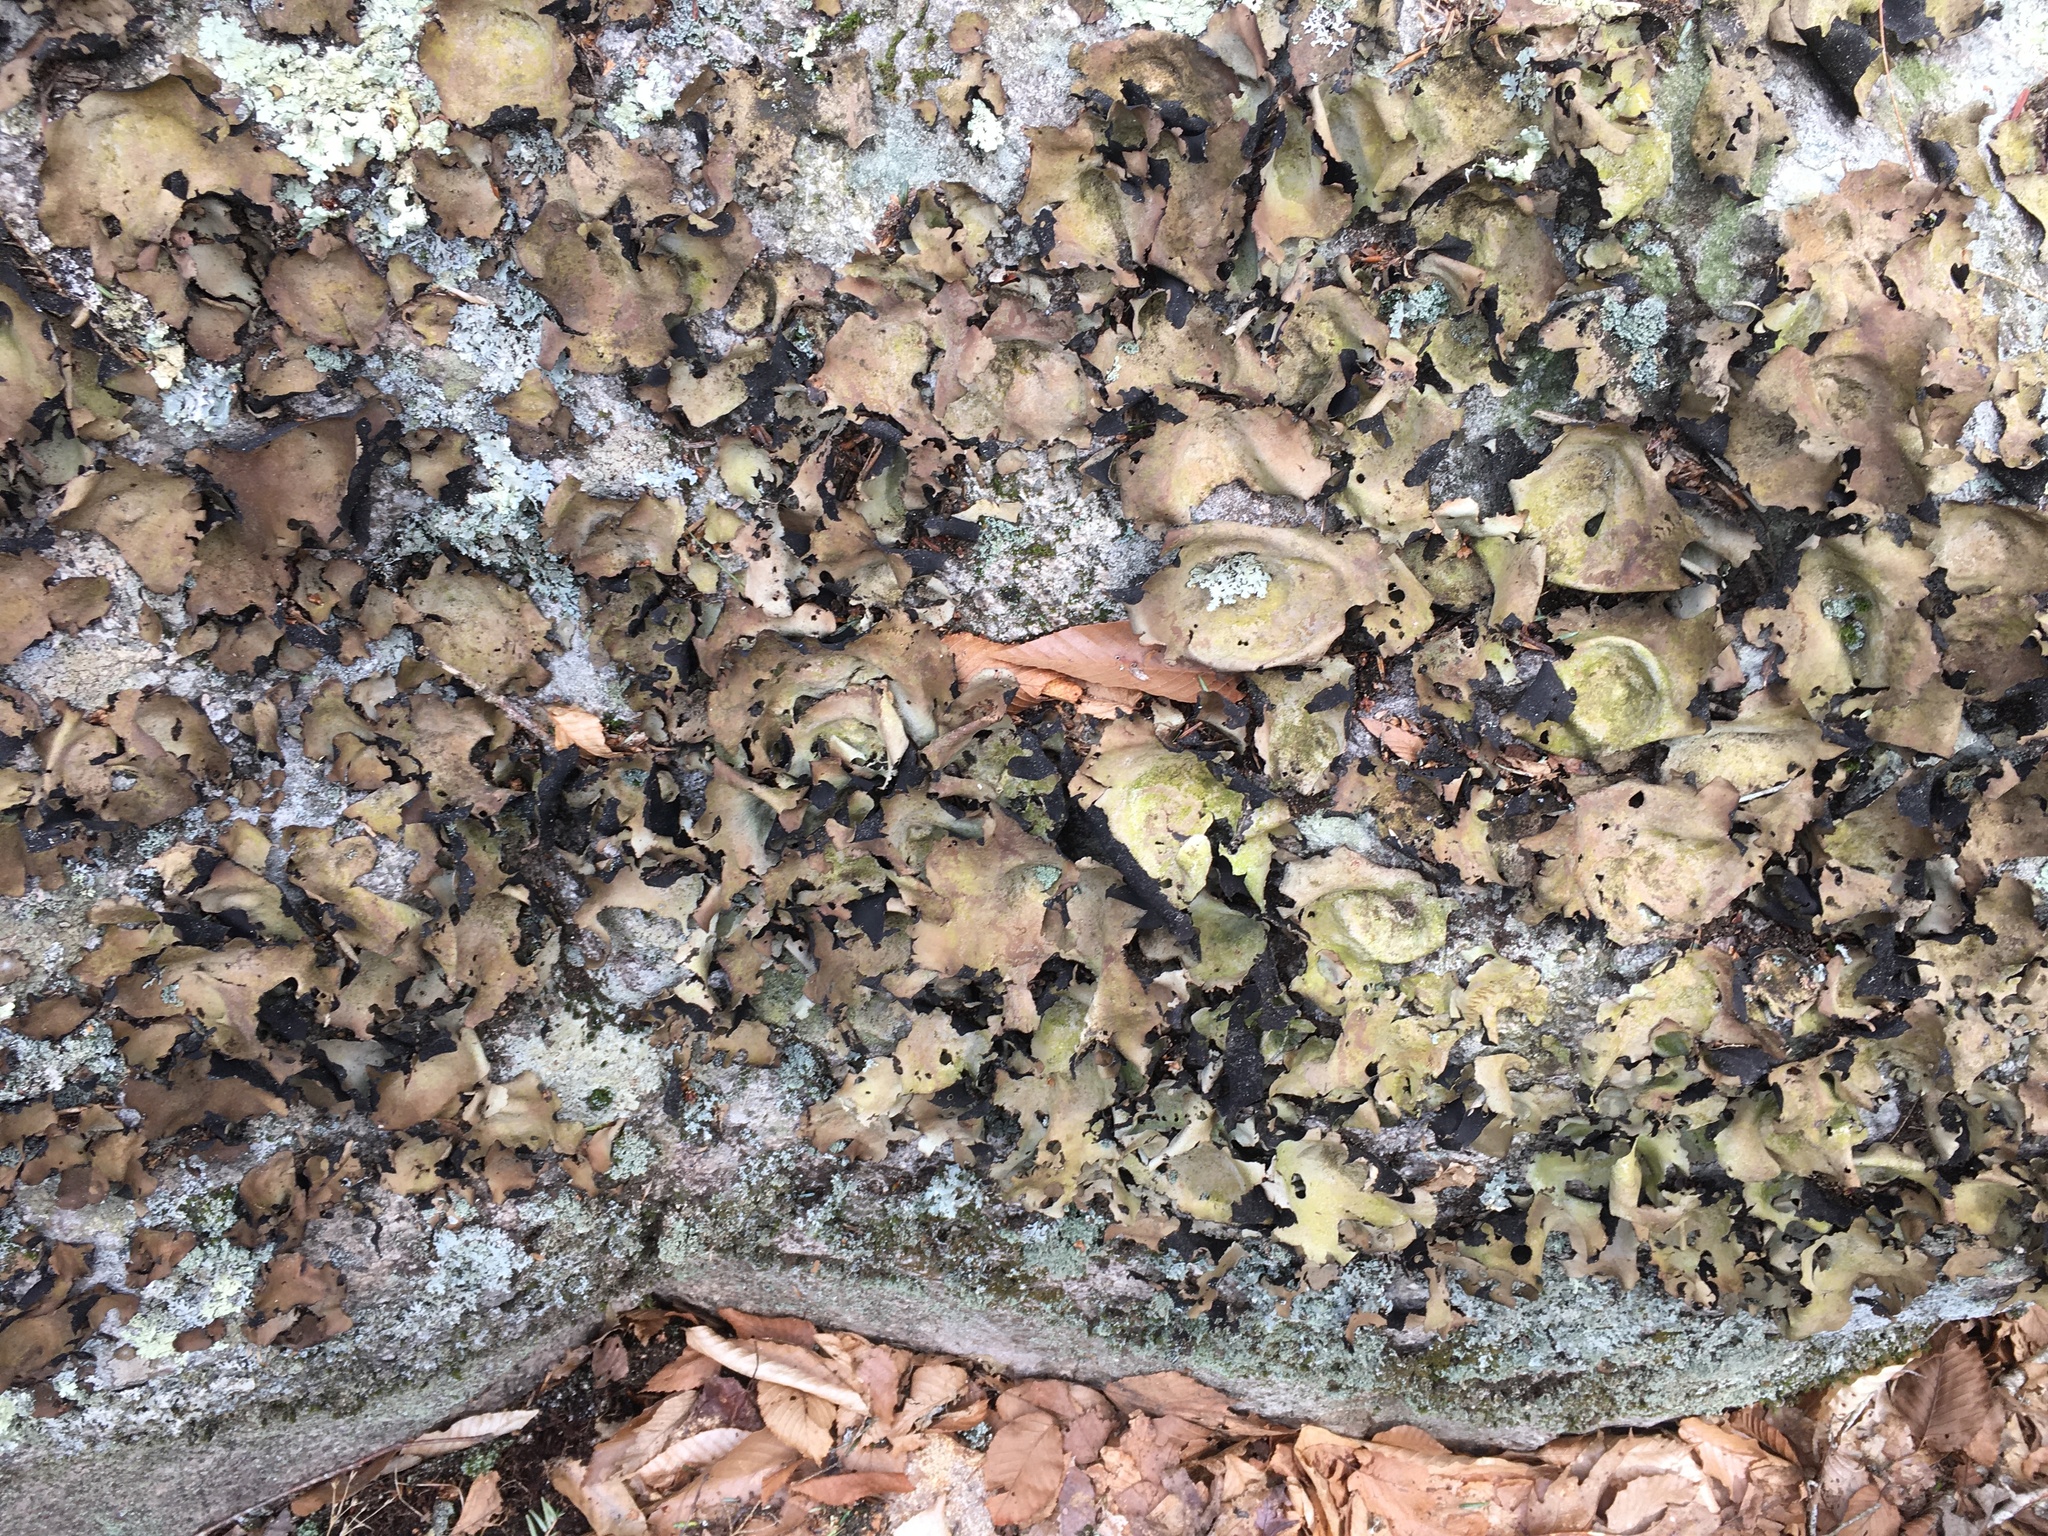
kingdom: Fungi
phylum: Ascomycota
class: Lecanoromycetes
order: Umbilicariales
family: Umbilicariaceae
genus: Umbilicaria
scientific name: Umbilicaria mammulata
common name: Smooth rock tripe
